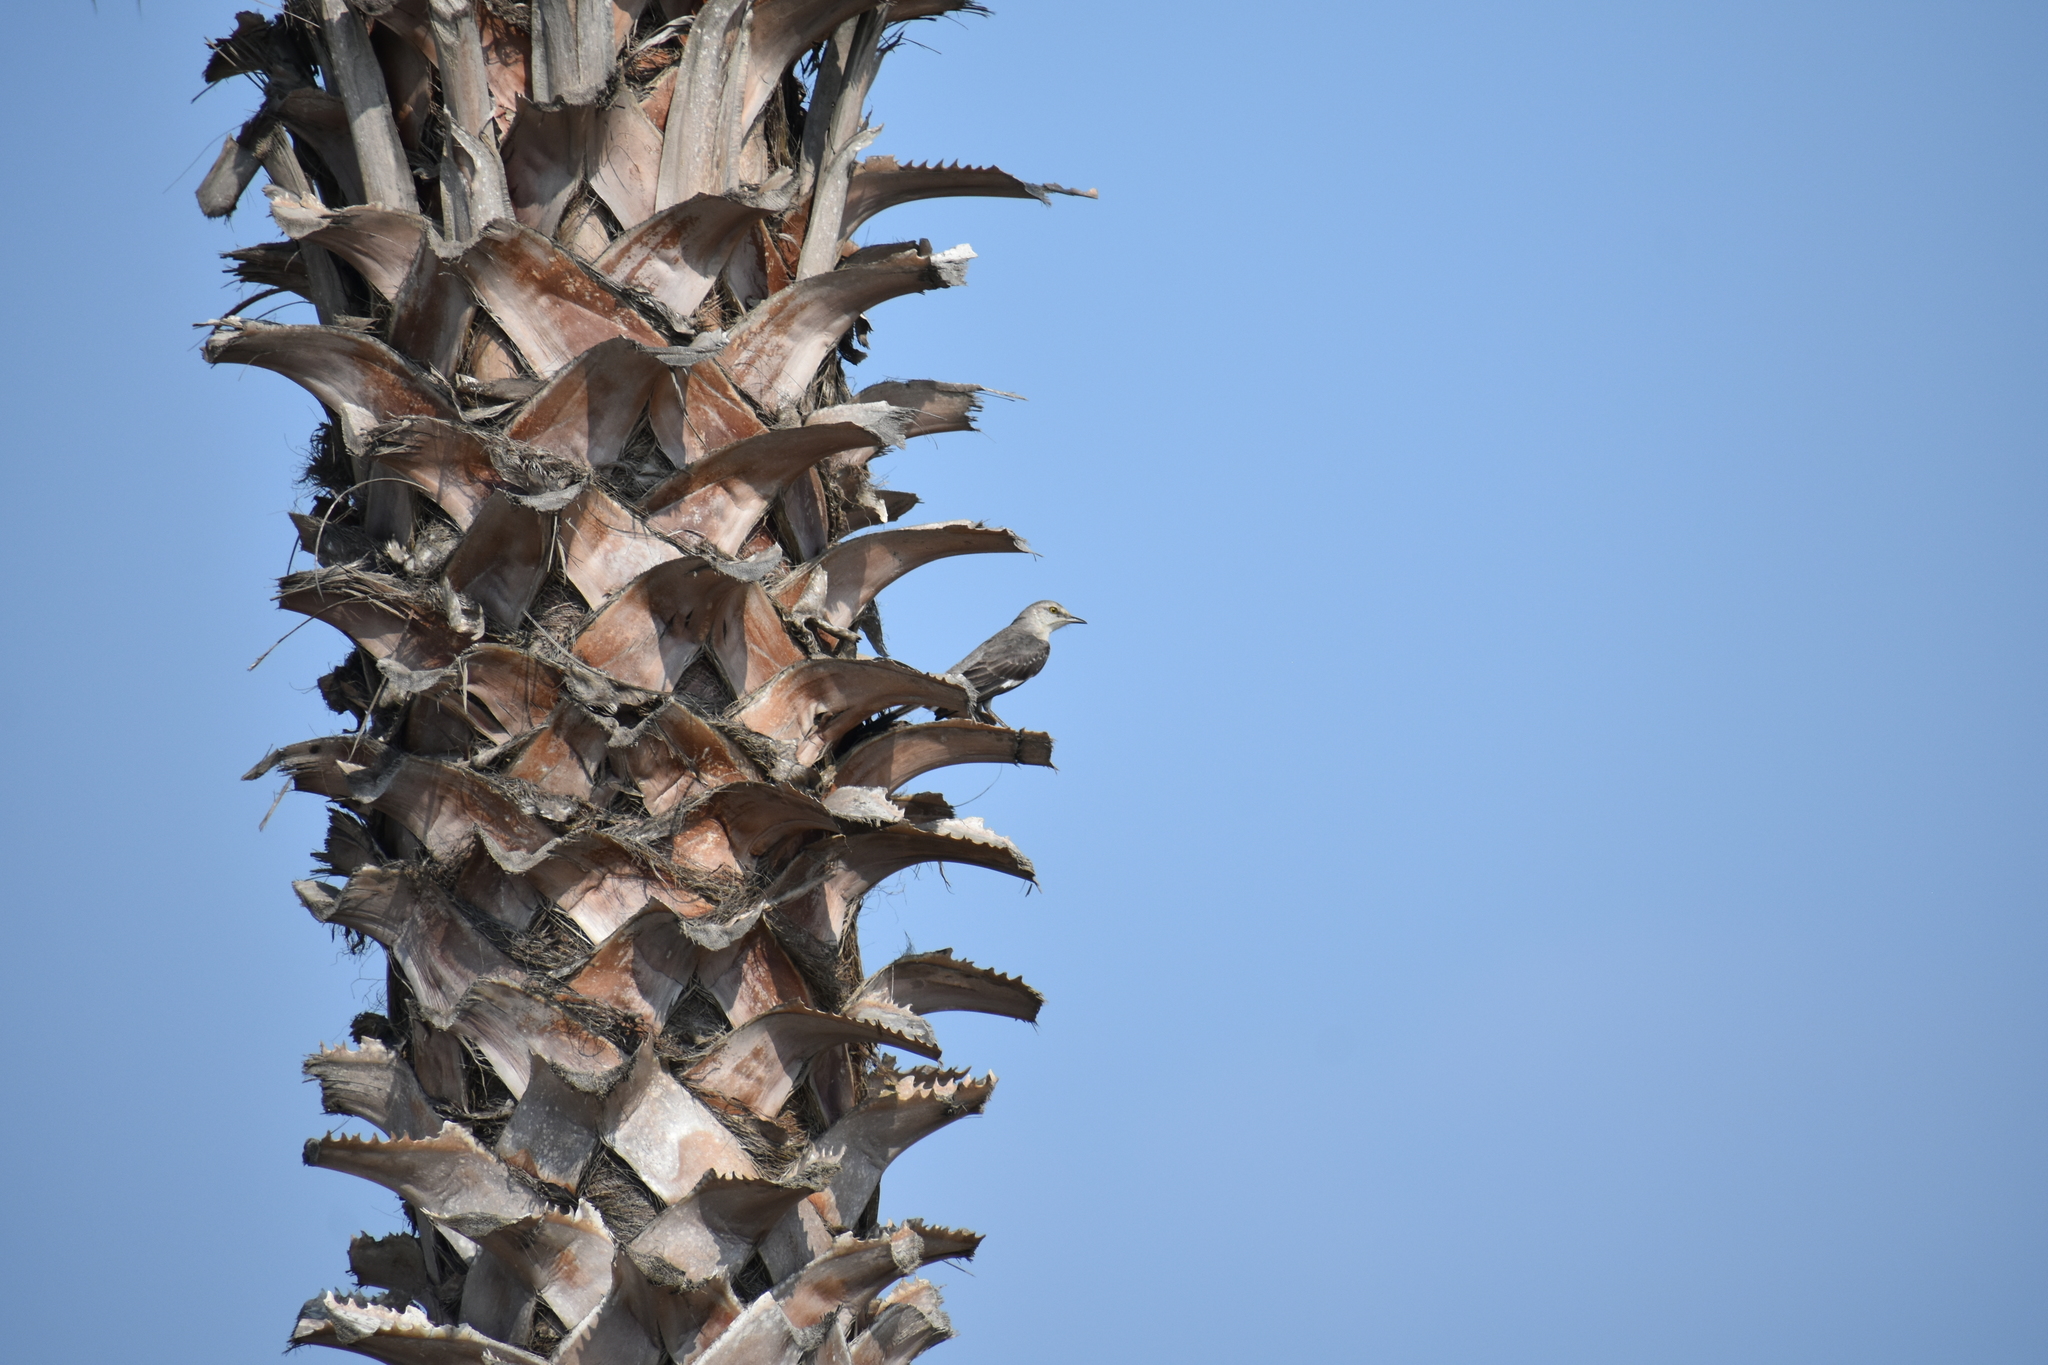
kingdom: Animalia
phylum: Chordata
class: Aves
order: Passeriformes
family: Mimidae
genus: Mimus
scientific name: Mimus polyglottos
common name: Northern mockingbird
